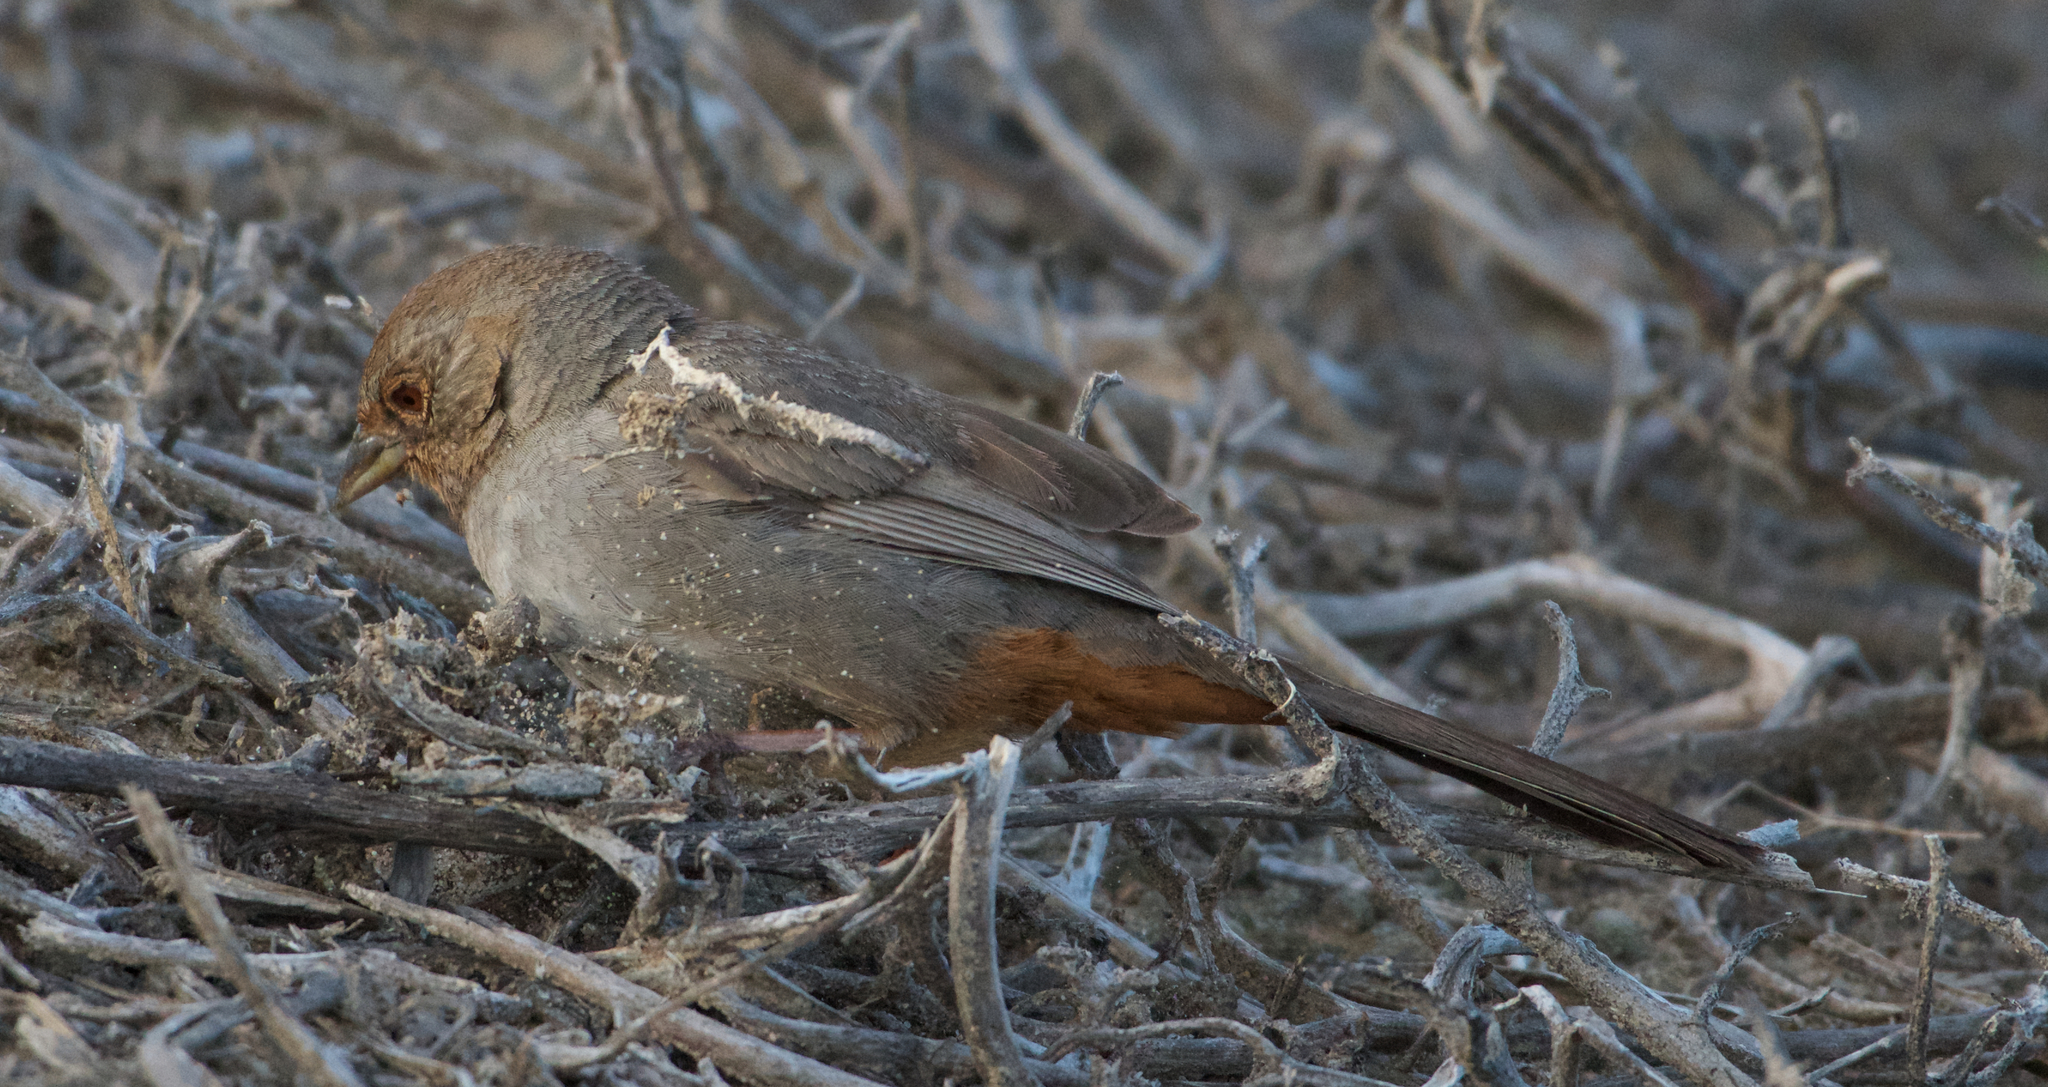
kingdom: Animalia
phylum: Chordata
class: Aves
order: Passeriformes
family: Passerellidae
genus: Melozone
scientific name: Melozone crissalis
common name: California towhee
